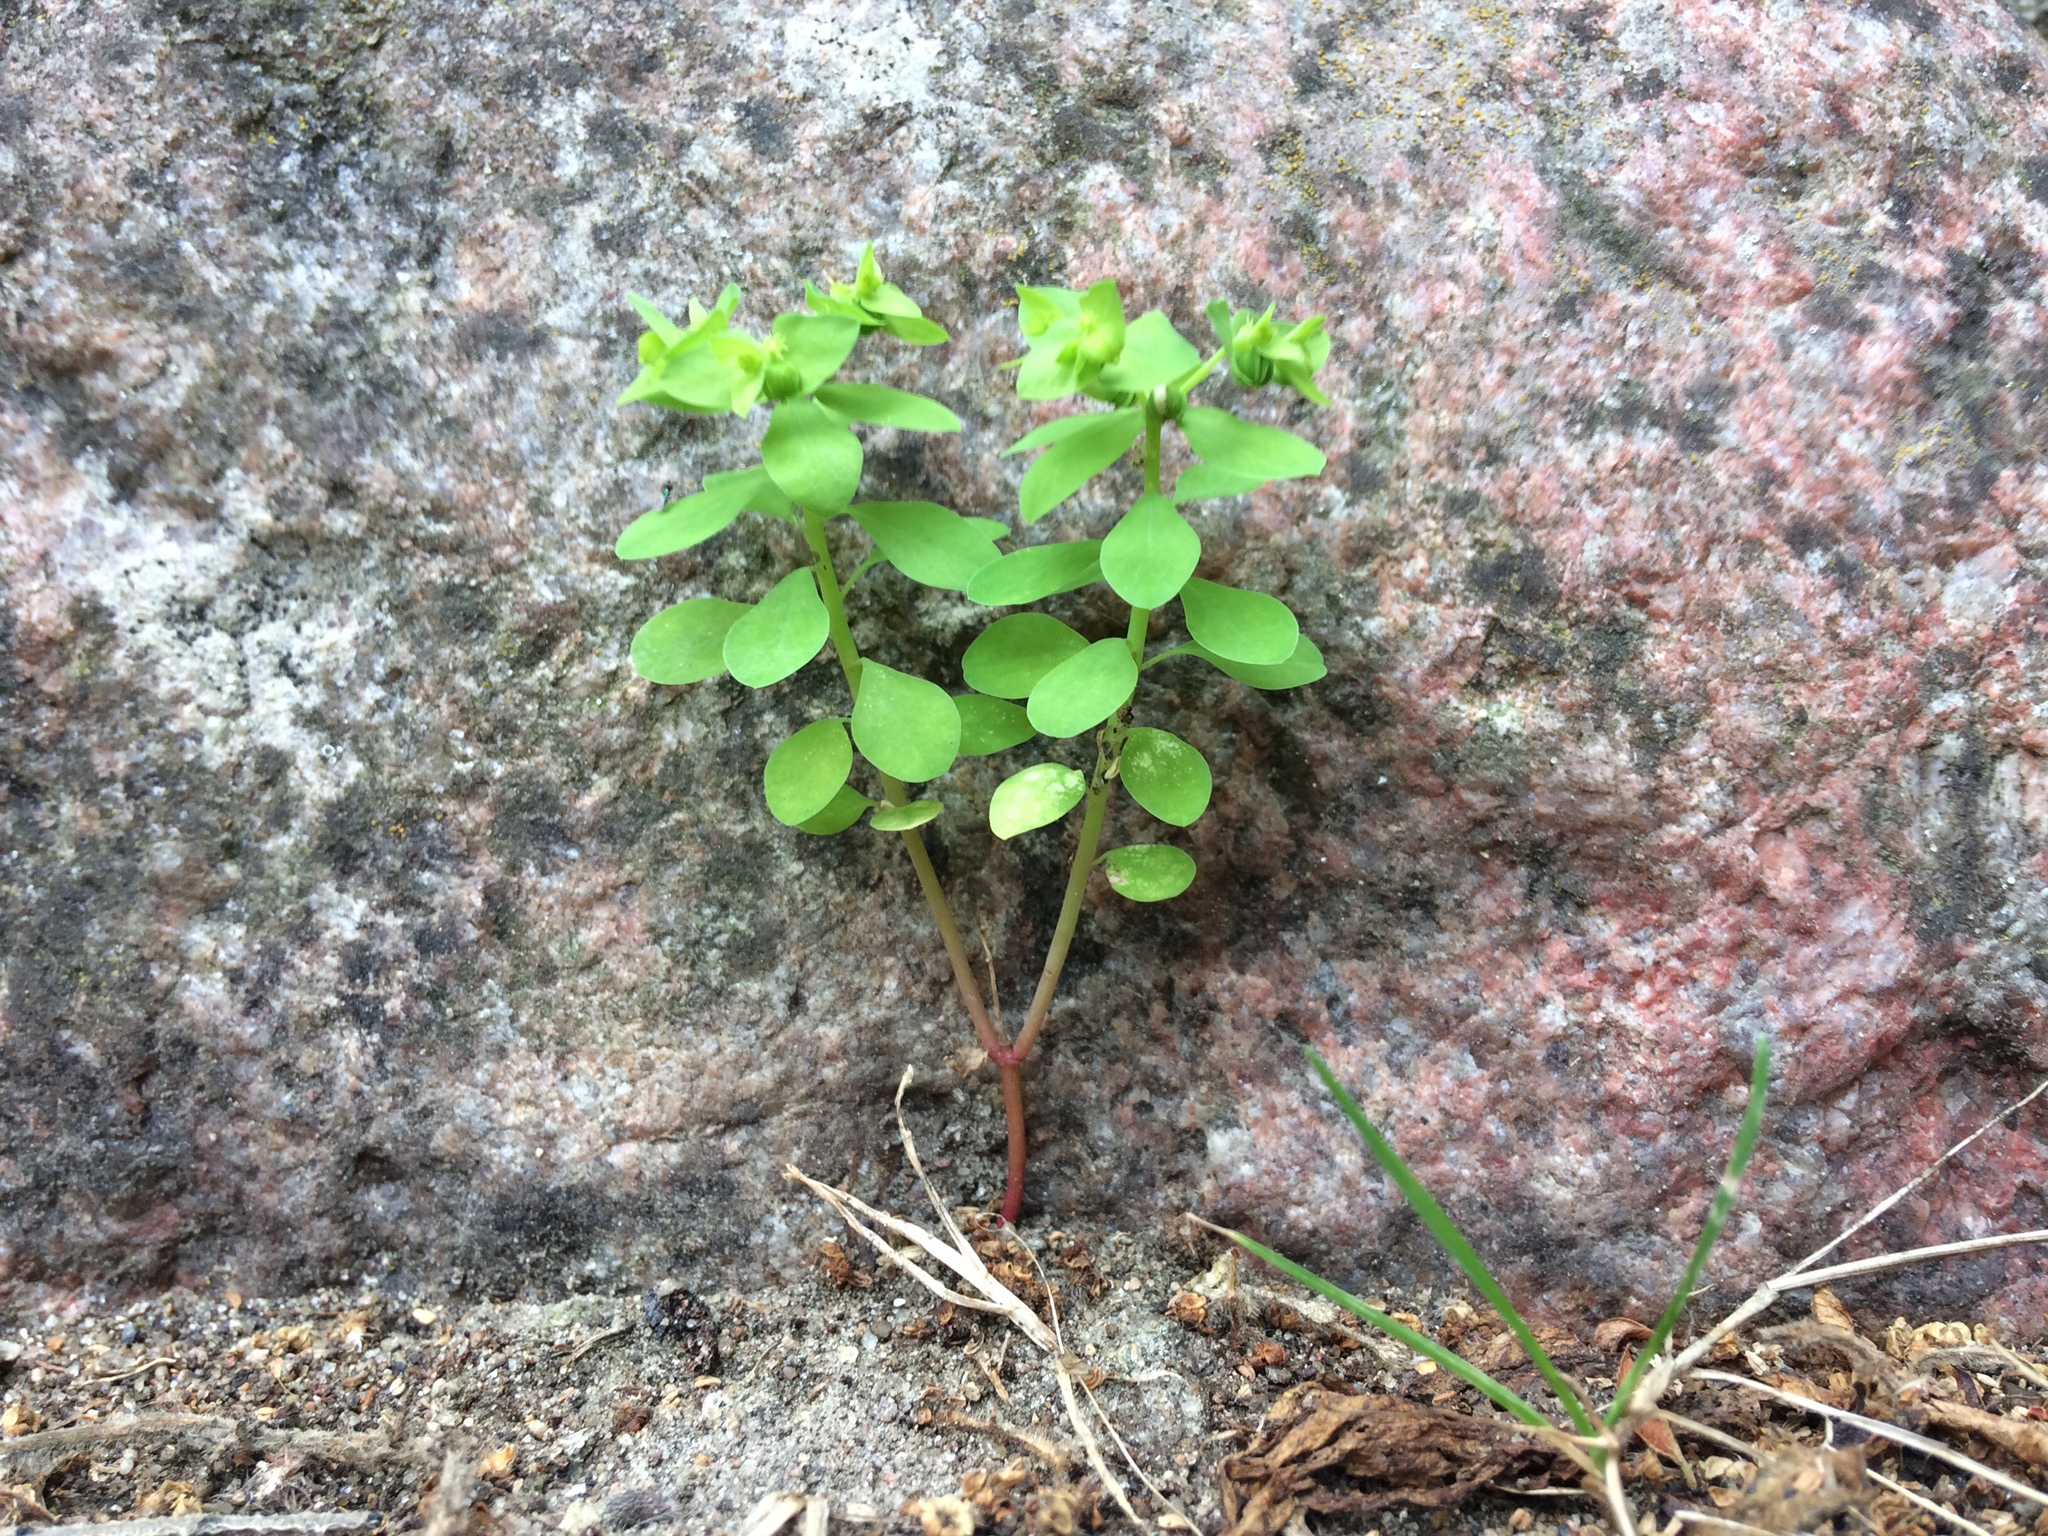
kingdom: Plantae
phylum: Tracheophyta
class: Magnoliopsida
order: Malpighiales
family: Euphorbiaceae
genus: Euphorbia
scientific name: Euphorbia peplus
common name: Petty spurge
